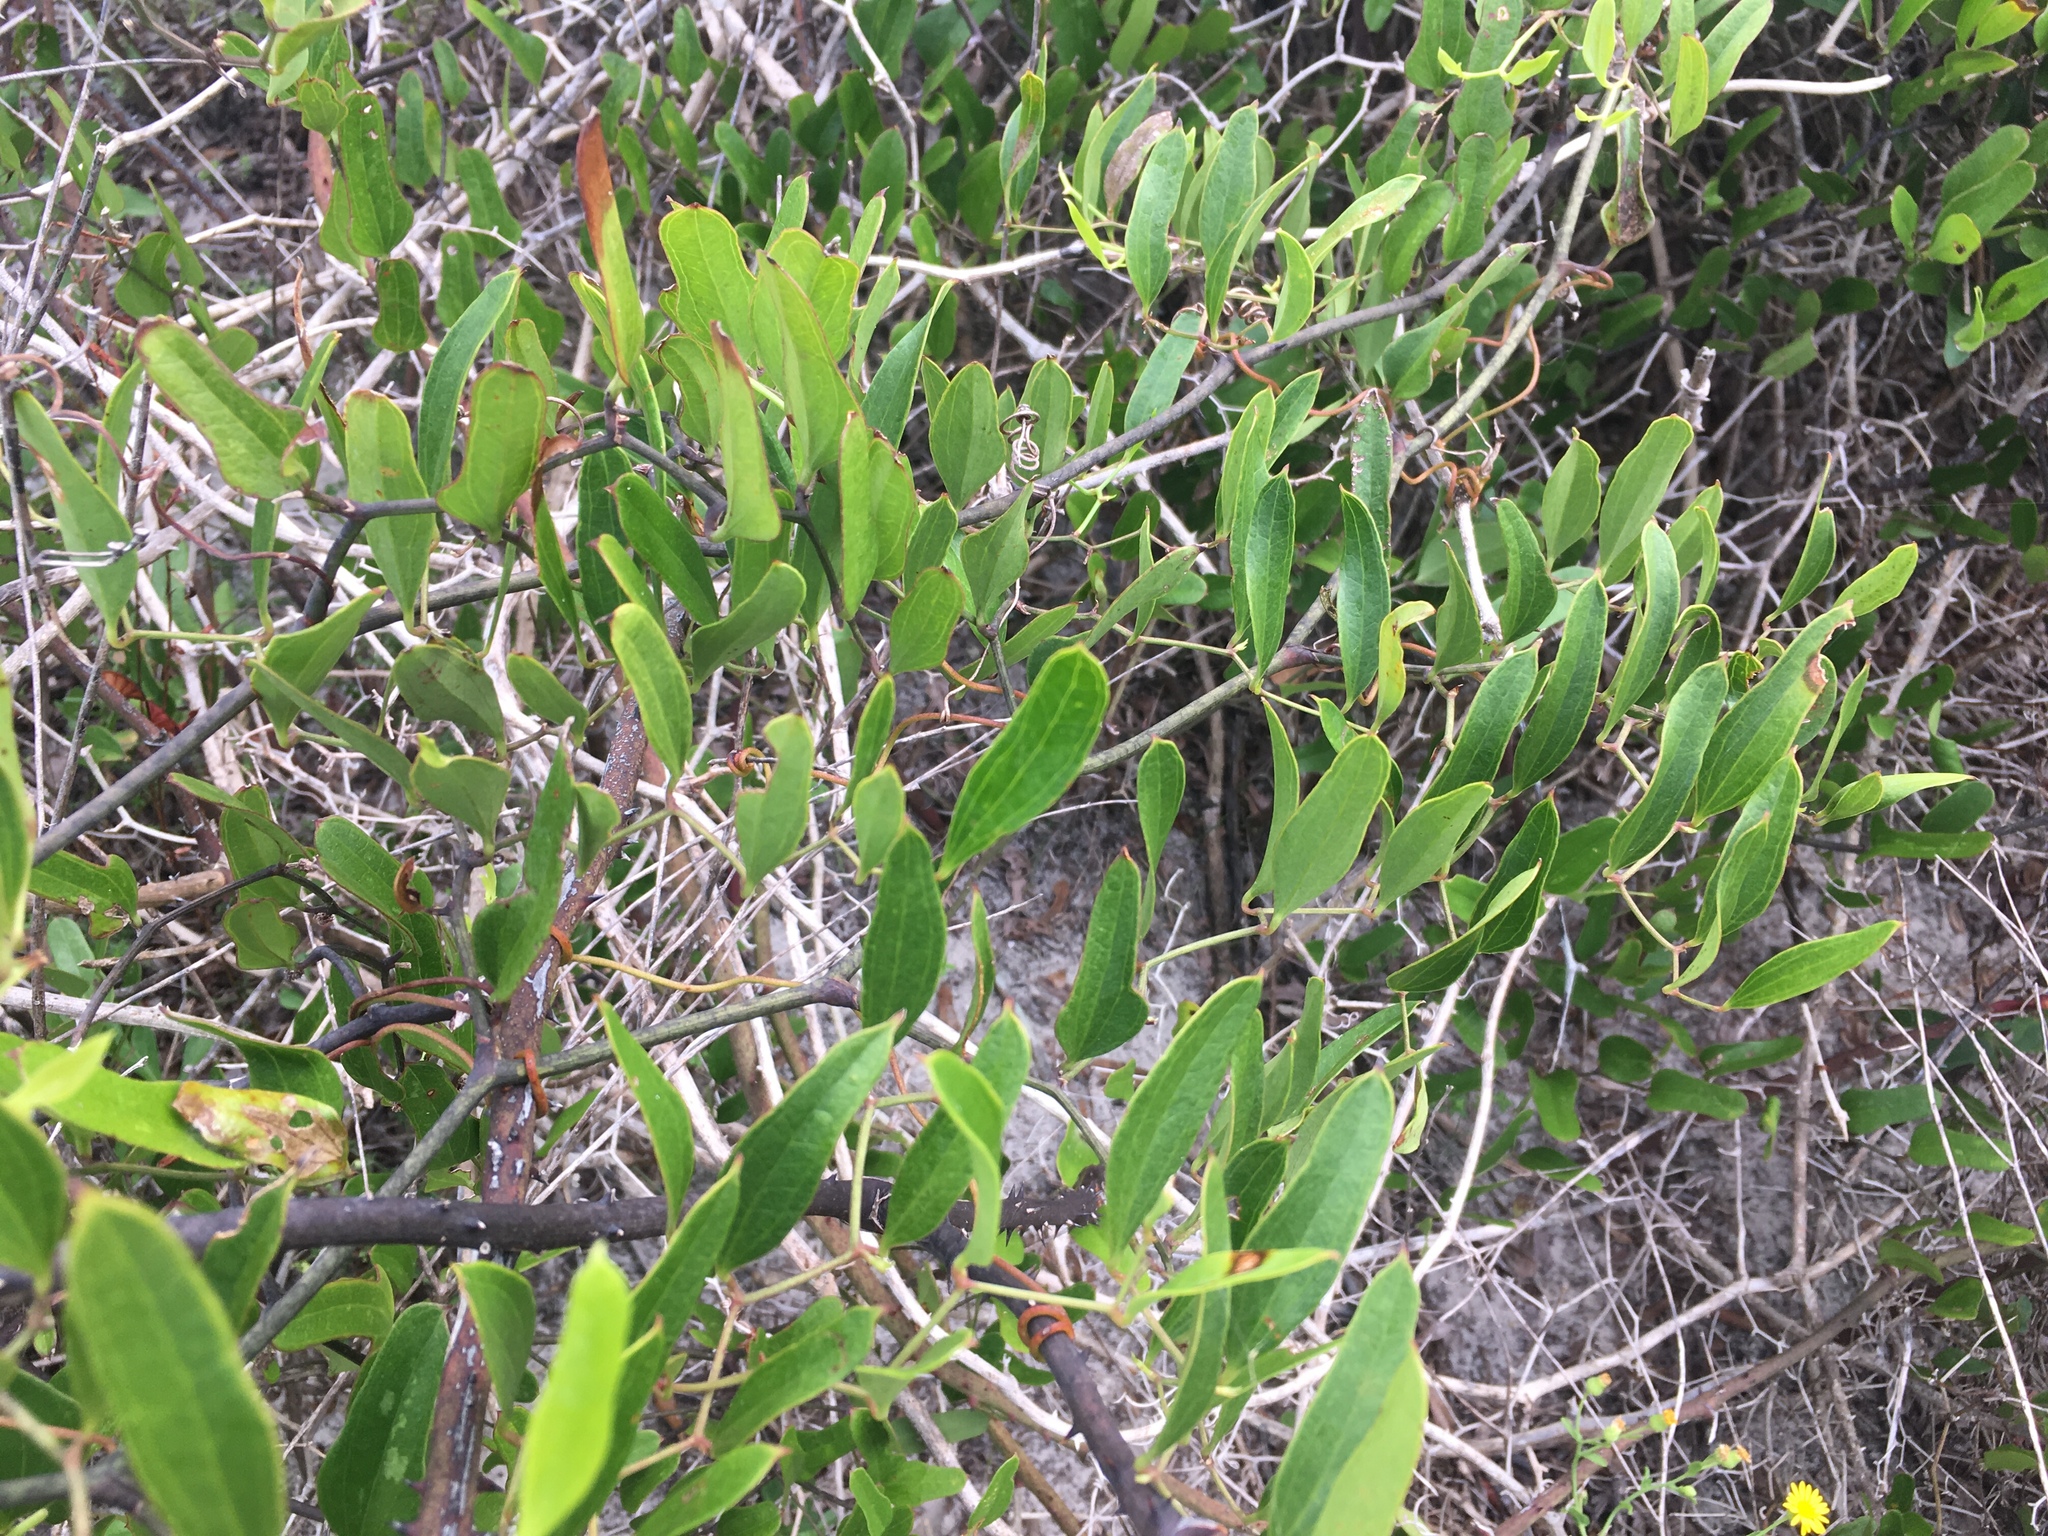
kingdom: Plantae
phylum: Tracheophyta
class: Liliopsida
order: Liliales
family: Smilacaceae
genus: Smilax
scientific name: Smilax auriculata
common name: Wild bamboo
